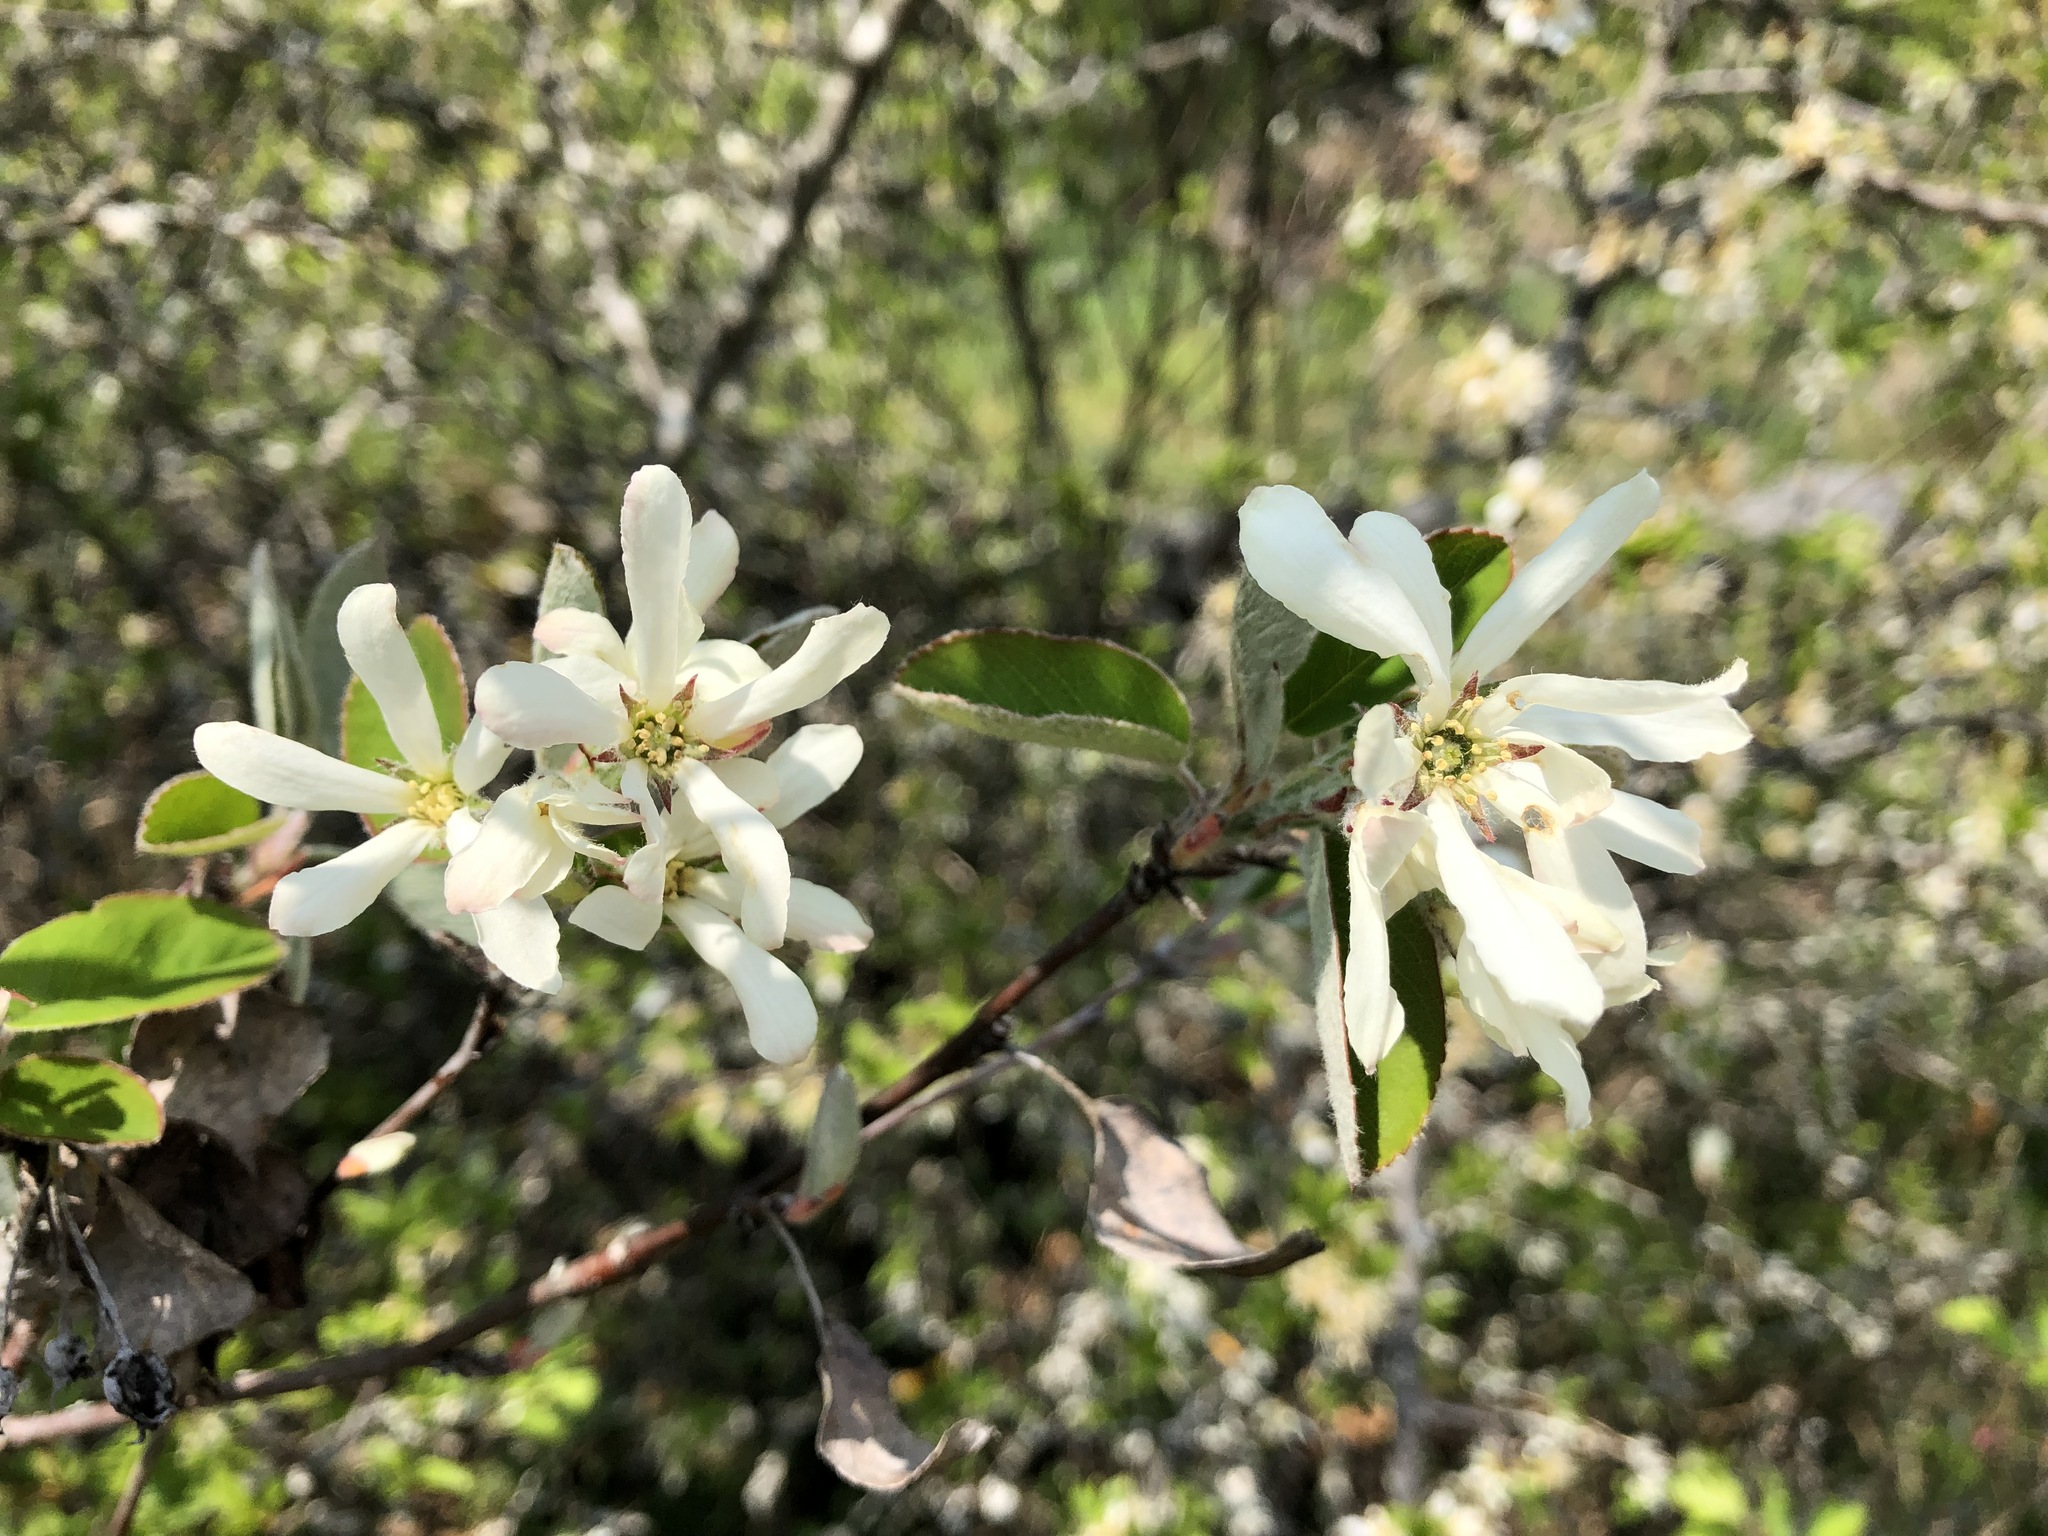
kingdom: Plantae
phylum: Tracheophyta
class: Magnoliopsida
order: Rosales
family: Rosaceae
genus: Amelanchier
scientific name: Amelanchier ovalis
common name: Serviceberry
